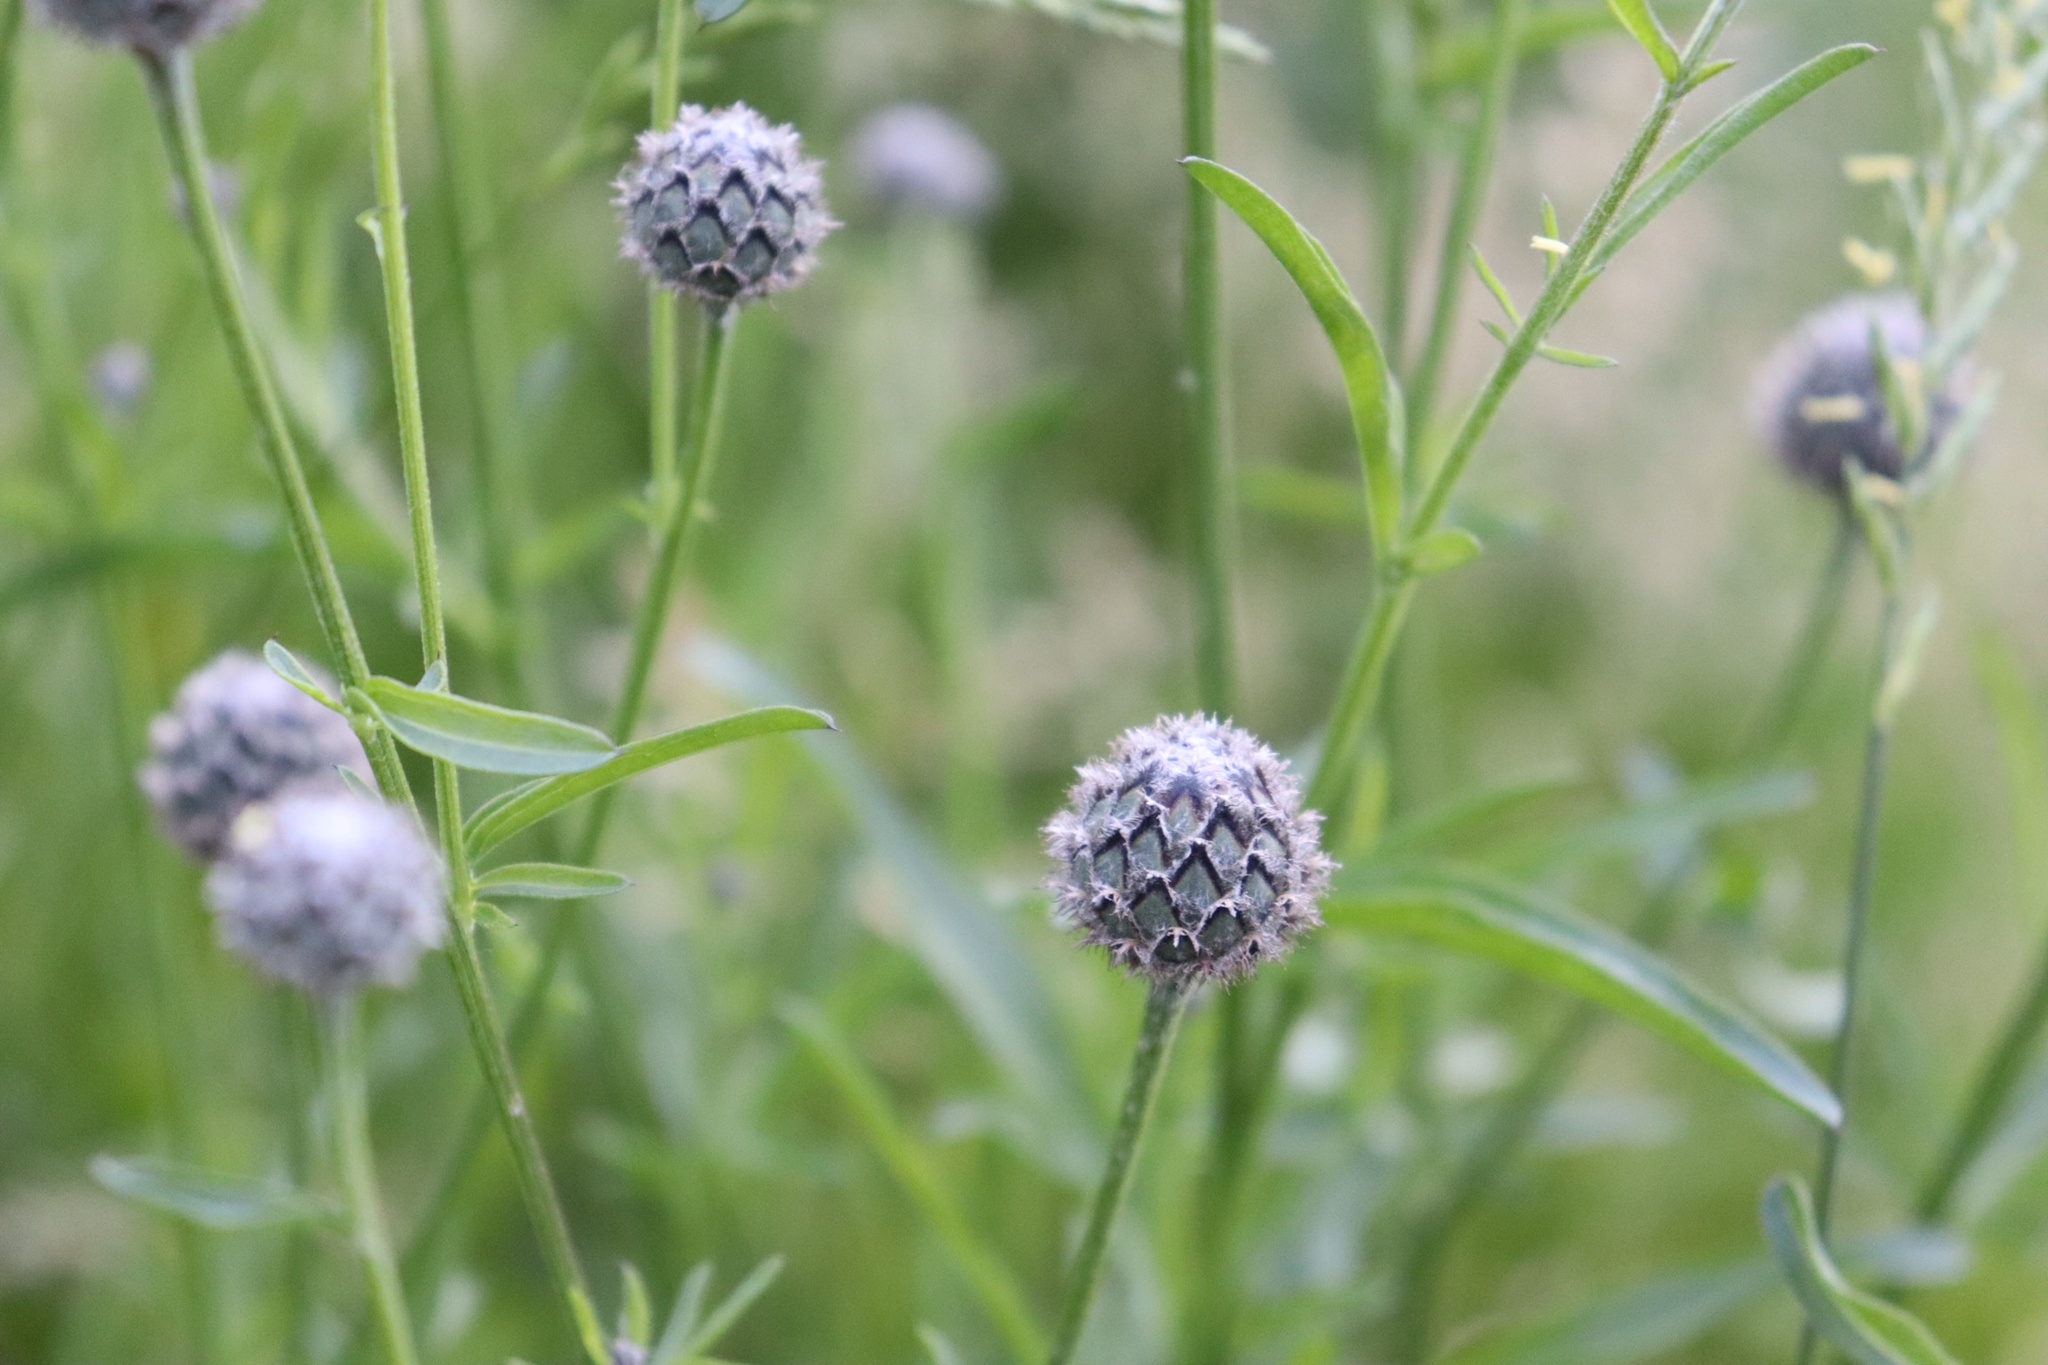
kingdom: Plantae
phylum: Tracheophyta
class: Magnoliopsida
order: Asterales
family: Asteraceae
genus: Centaurea
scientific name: Centaurea scabiosa
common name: Greater knapweed
